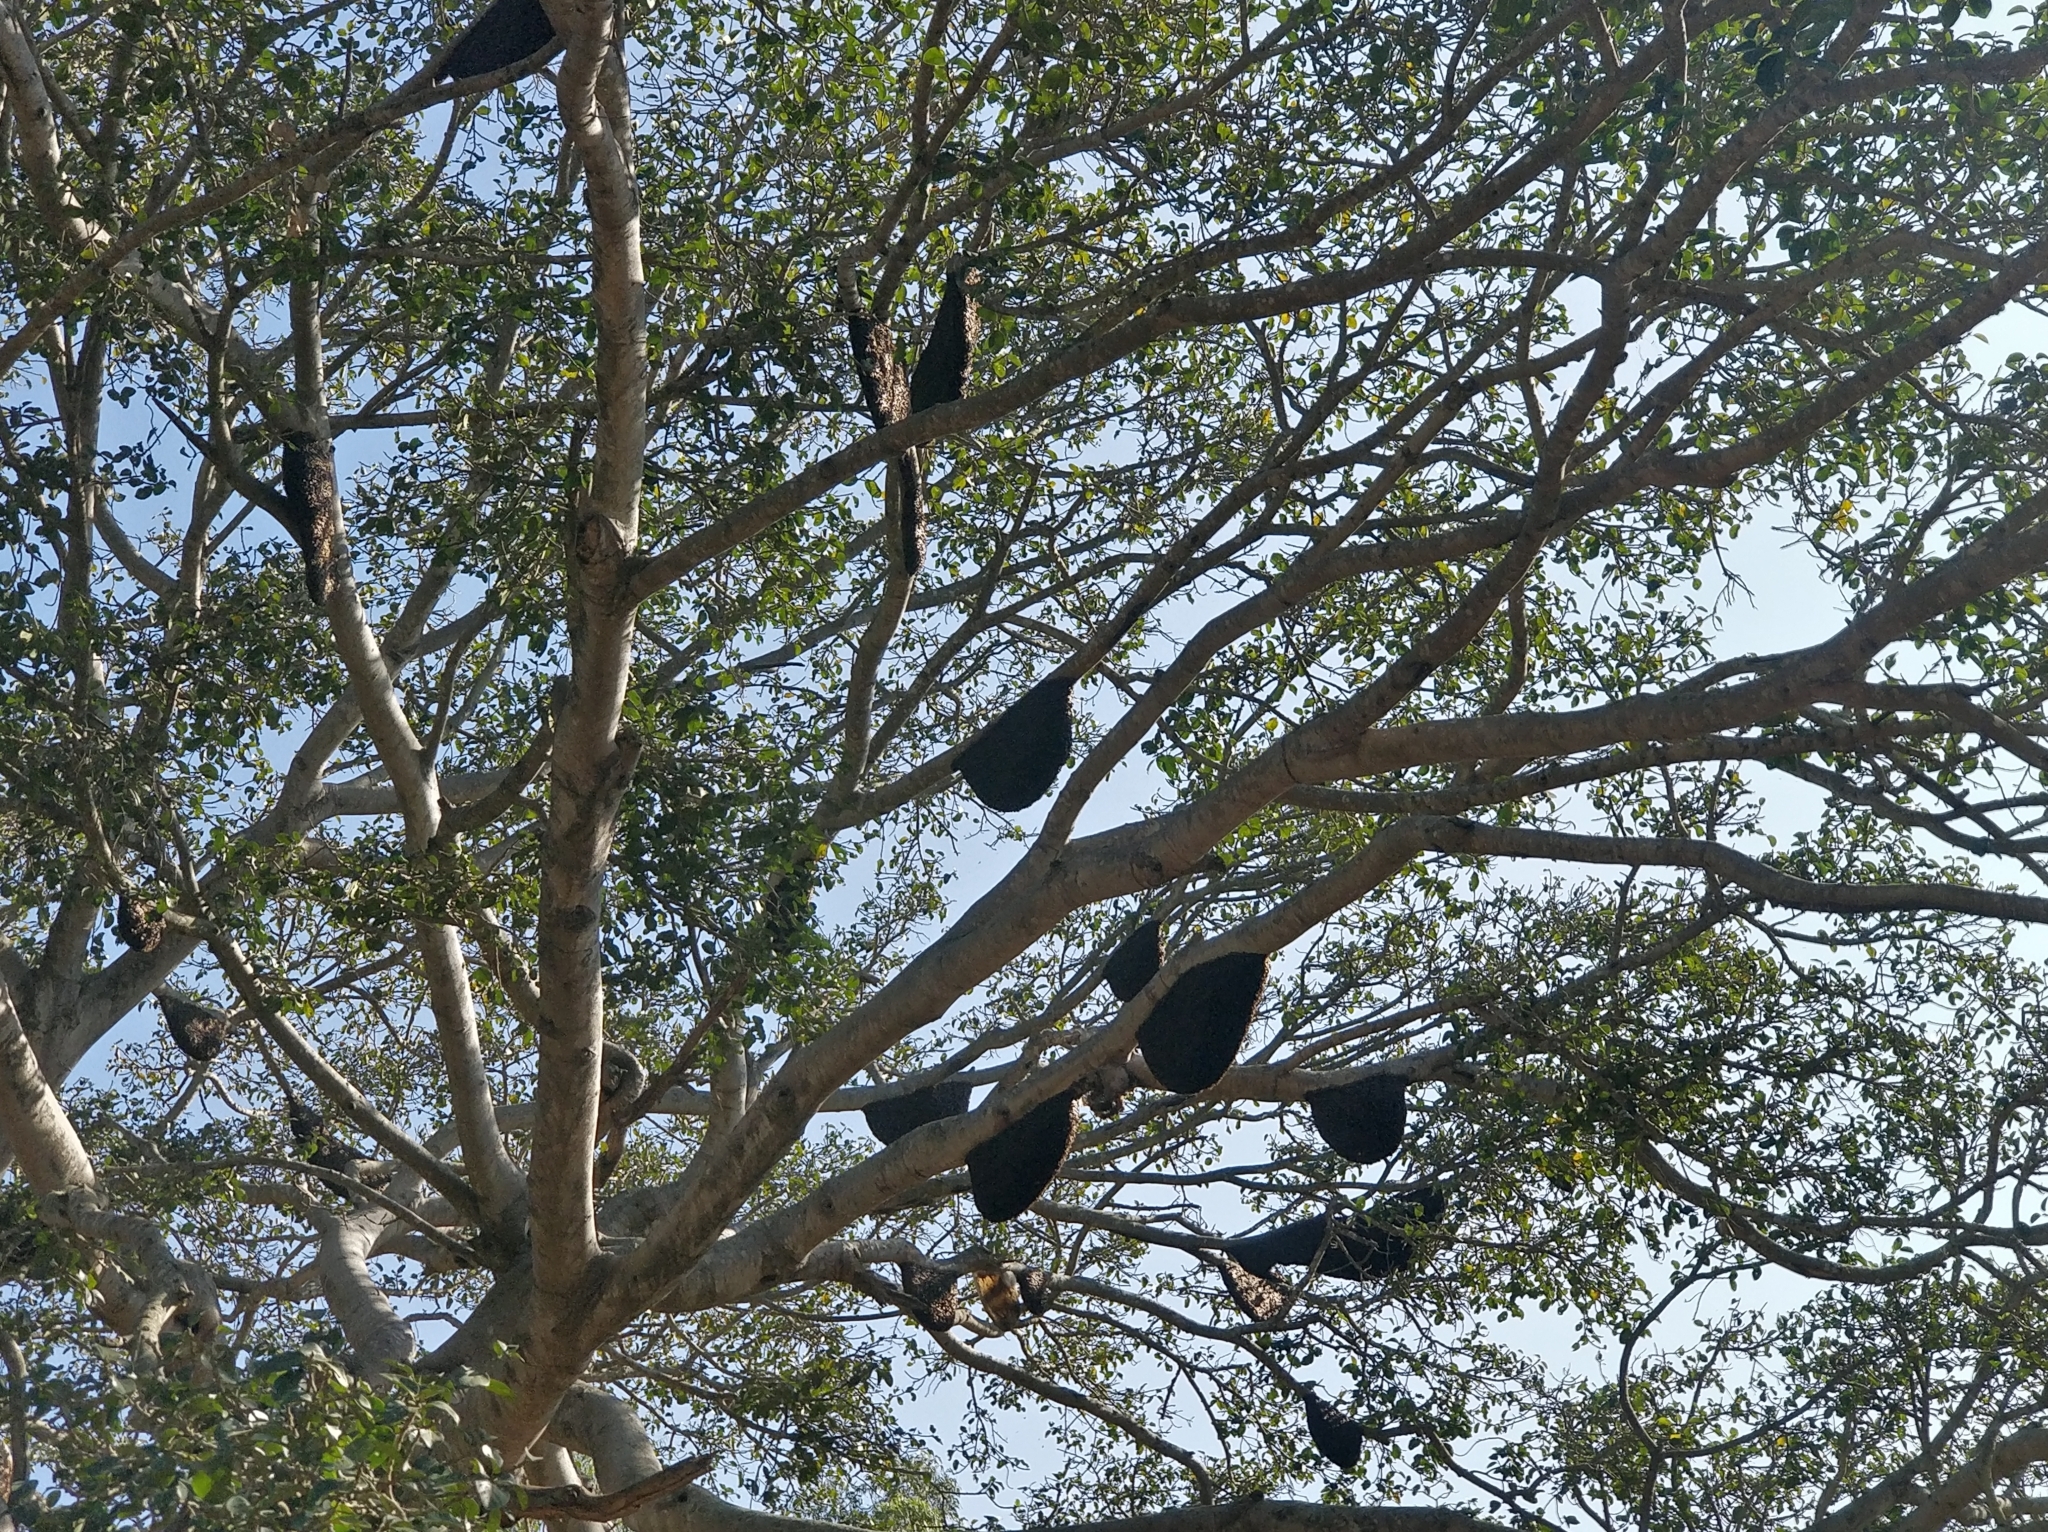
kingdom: Animalia
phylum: Arthropoda
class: Insecta
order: Hymenoptera
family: Apidae
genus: Apis
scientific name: Apis dorsata
